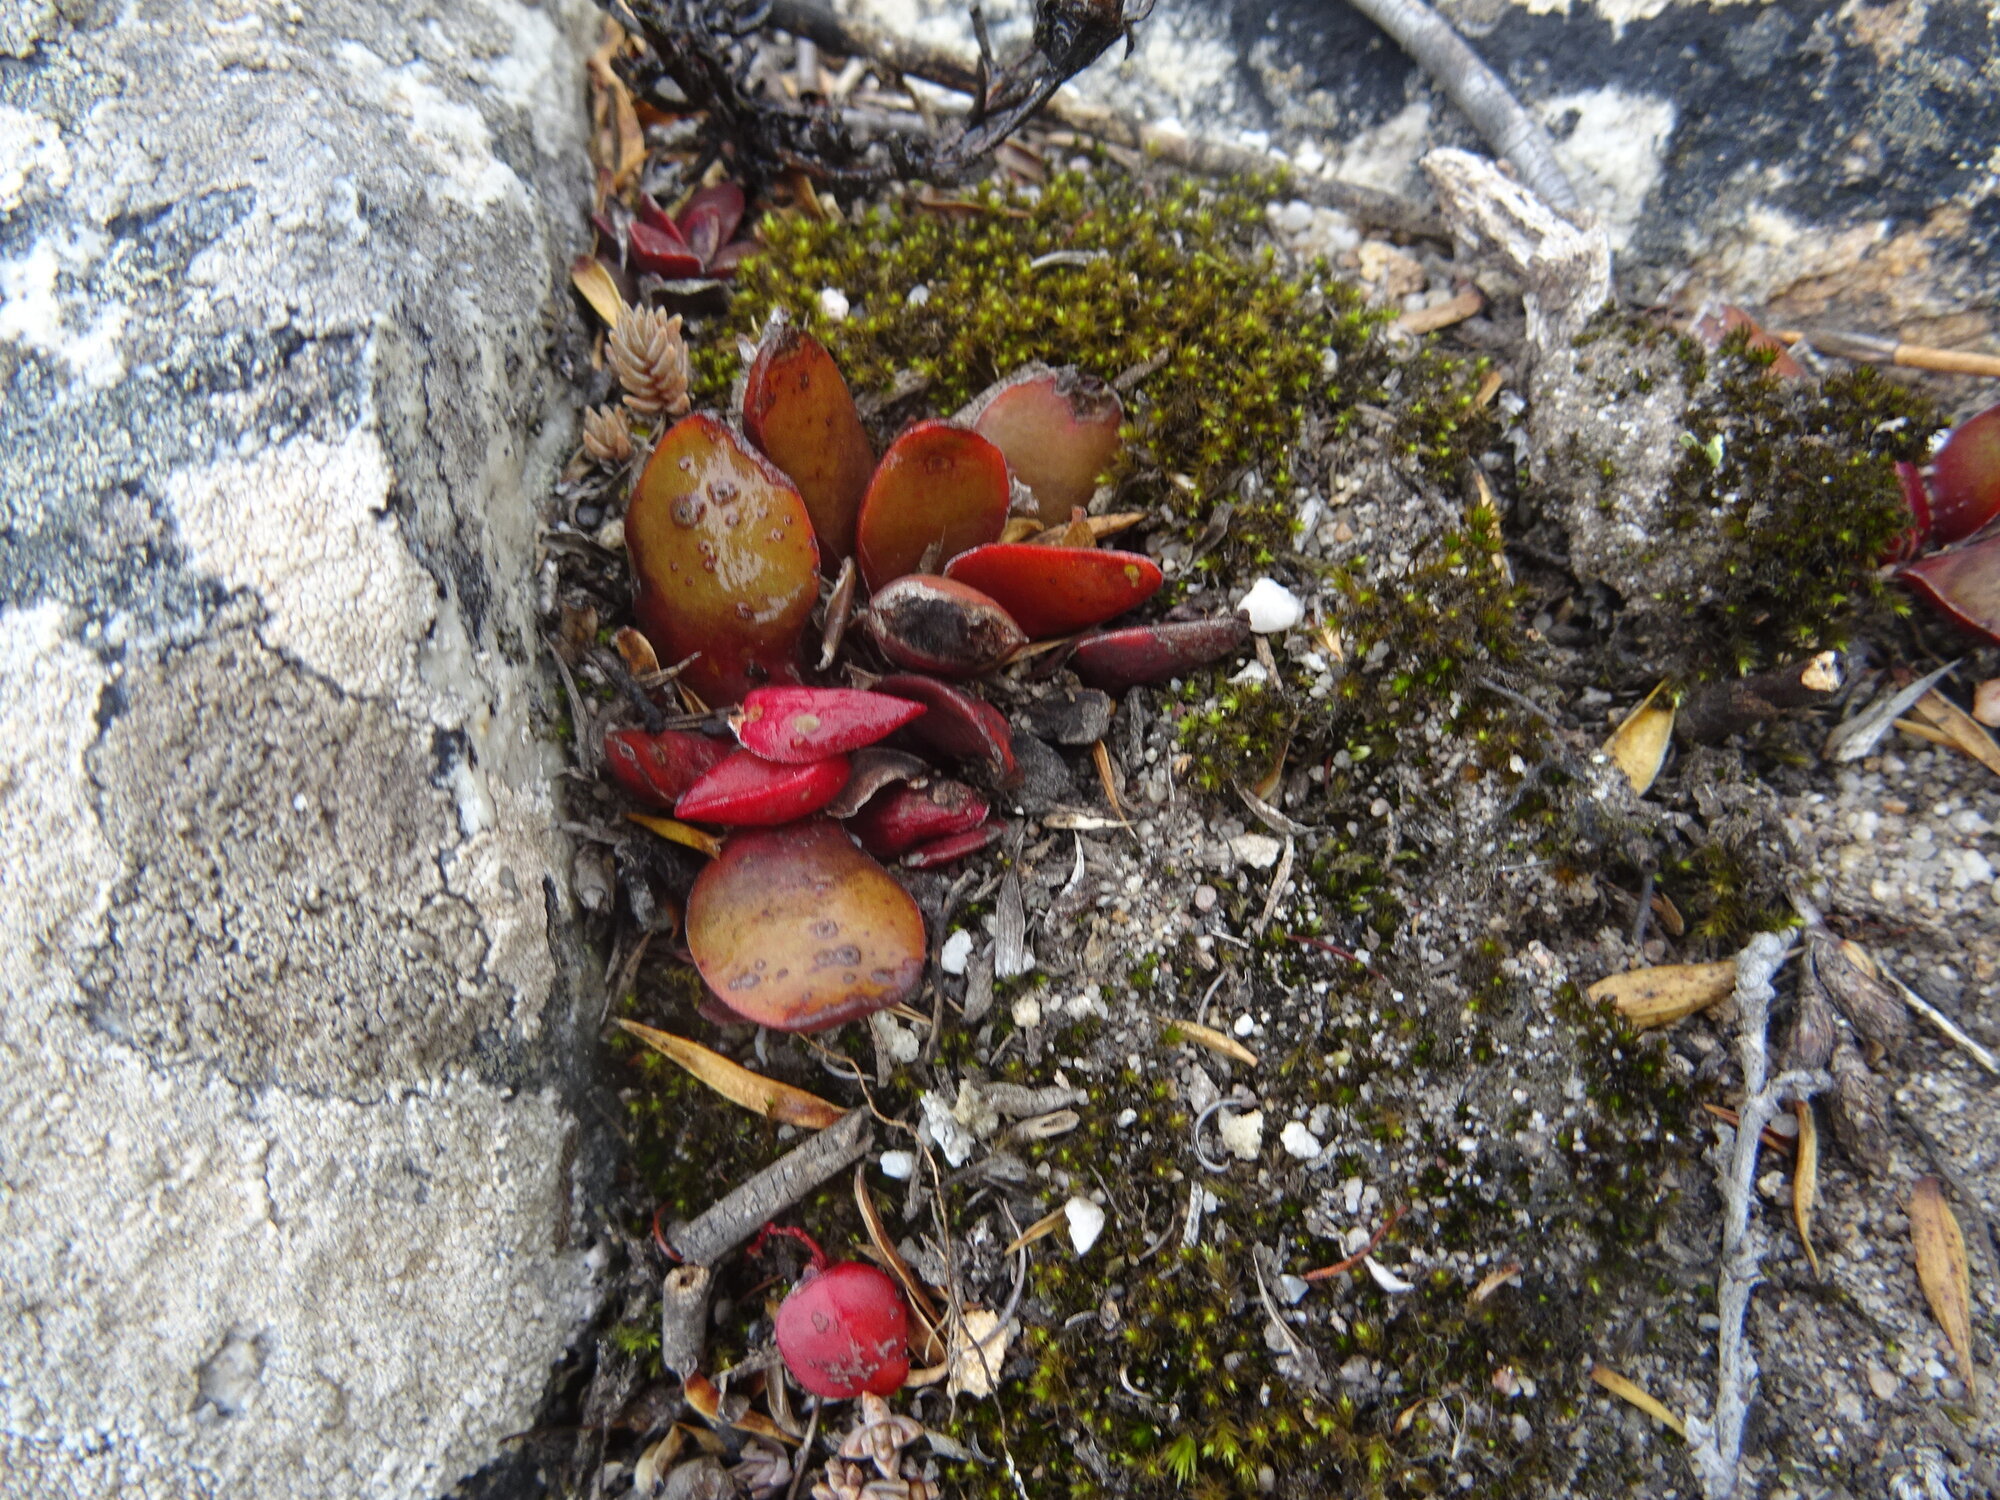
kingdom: Plantae
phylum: Tracheophyta
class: Magnoliopsida
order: Saxifragales
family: Crassulaceae
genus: Crassula
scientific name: Crassula nudicaulis
